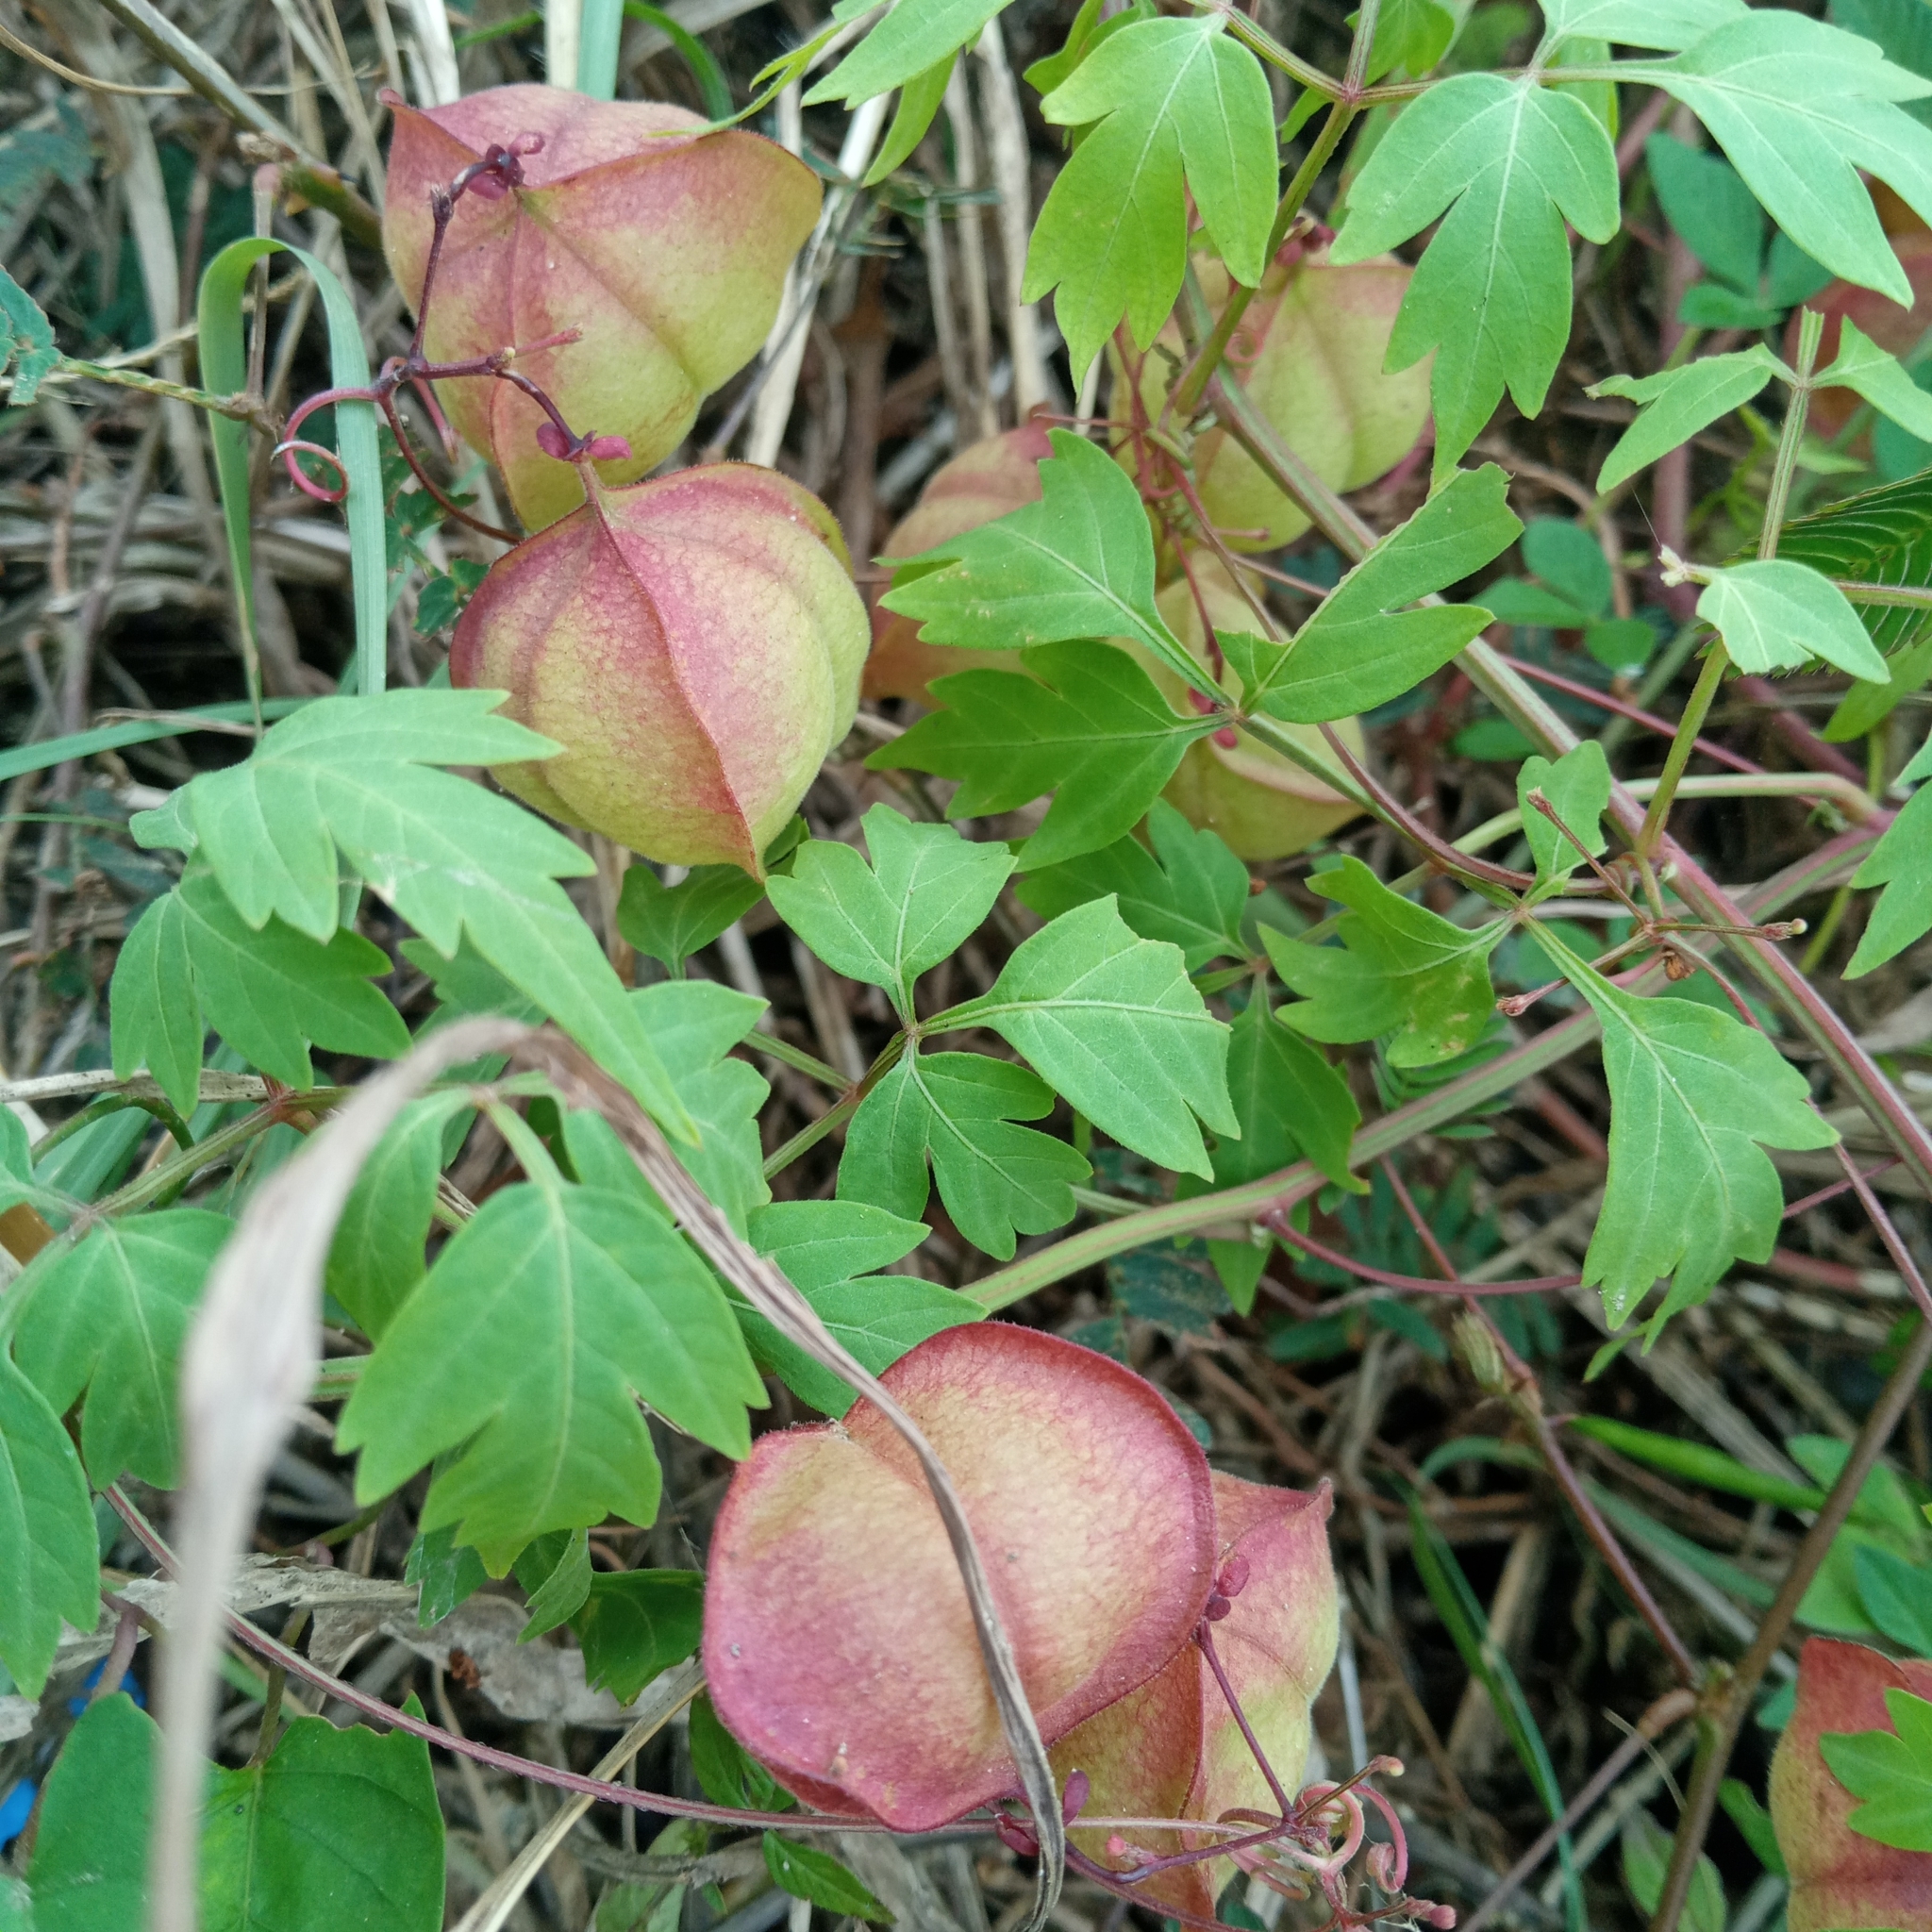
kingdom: Plantae
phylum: Tracheophyta
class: Magnoliopsida
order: Sapindales
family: Sapindaceae
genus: Cardiospermum
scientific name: Cardiospermum halicacabum
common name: Balloon vine
